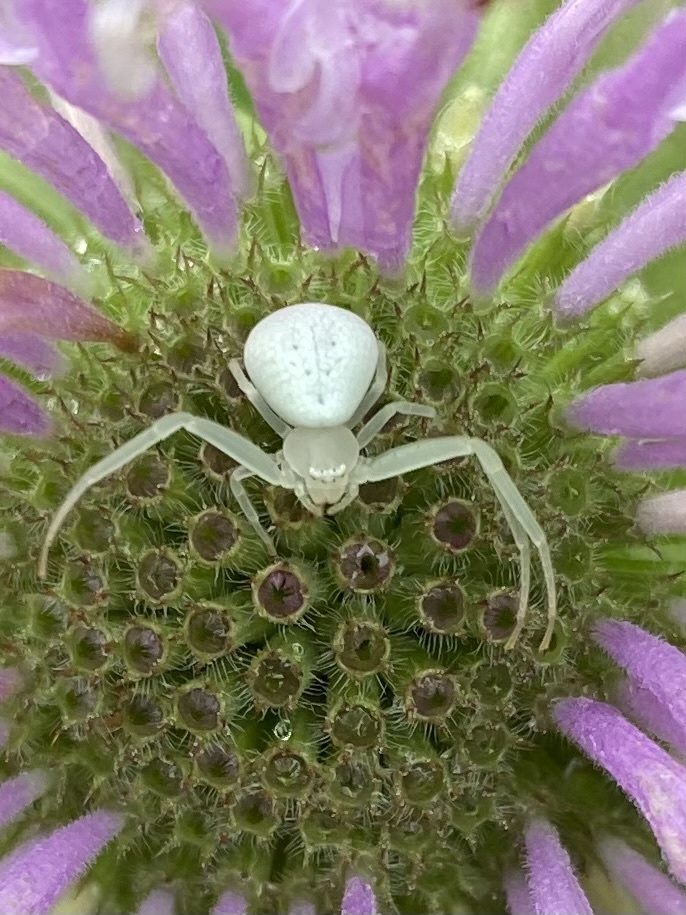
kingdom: Animalia
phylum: Arthropoda
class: Arachnida
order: Araneae
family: Thomisidae
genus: Misumessus
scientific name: Misumessus oblongus
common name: American green crab spider
